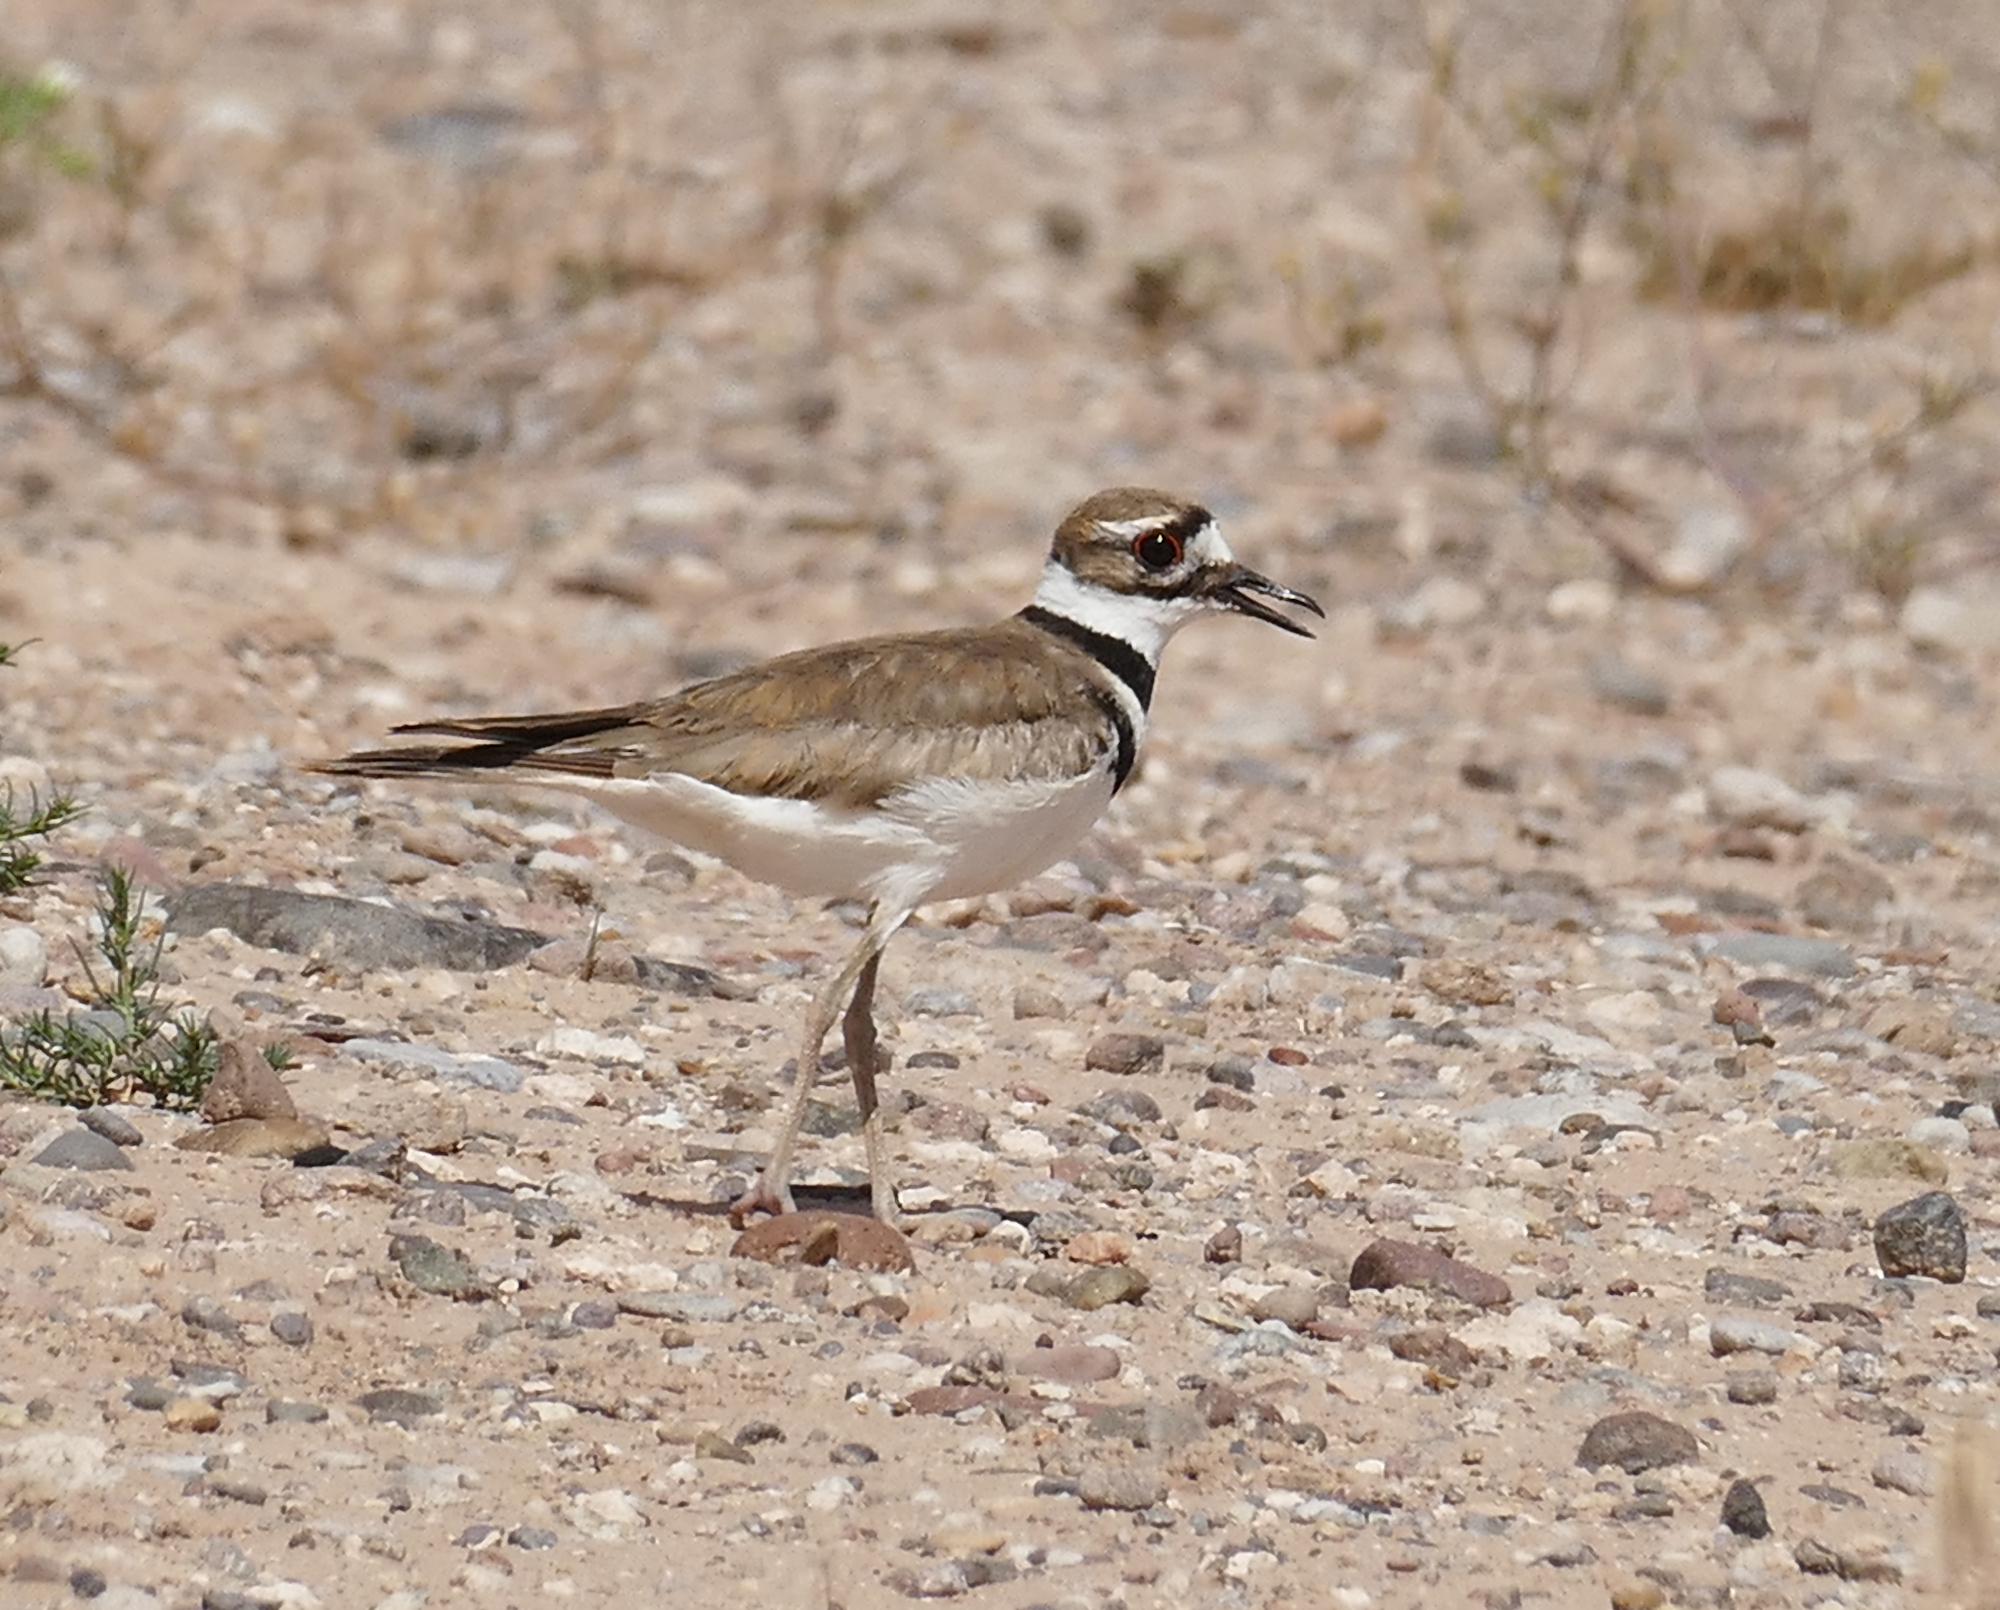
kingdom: Animalia
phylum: Chordata
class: Aves
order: Charadriiformes
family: Charadriidae
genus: Charadrius
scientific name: Charadrius vociferus
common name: Killdeer
